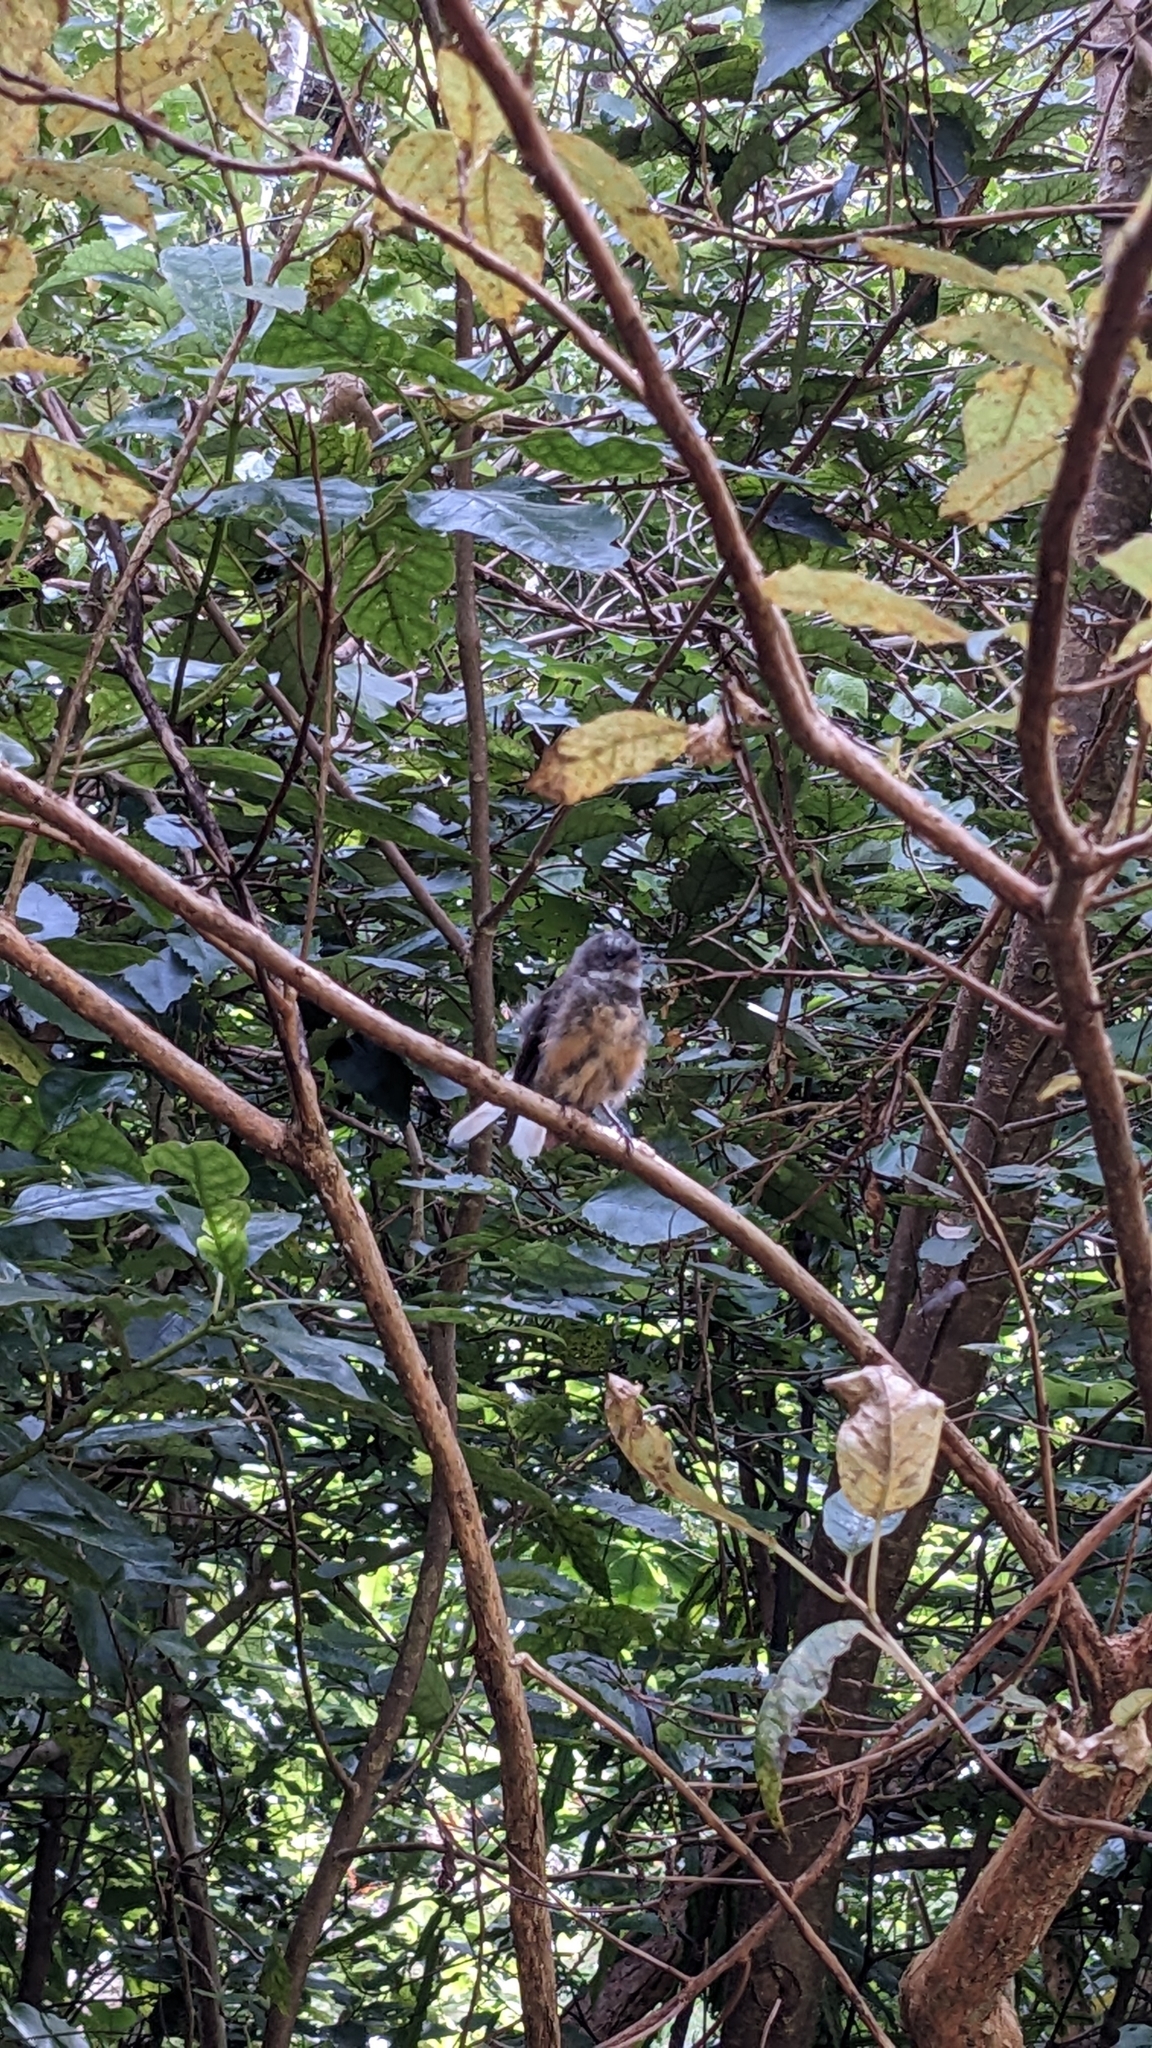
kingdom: Animalia
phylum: Chordata
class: Aves
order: Passeriformes
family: Rhipiduridae
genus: Rhipidura
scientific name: Rhipidura fuliginosa
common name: New zealand fantail
